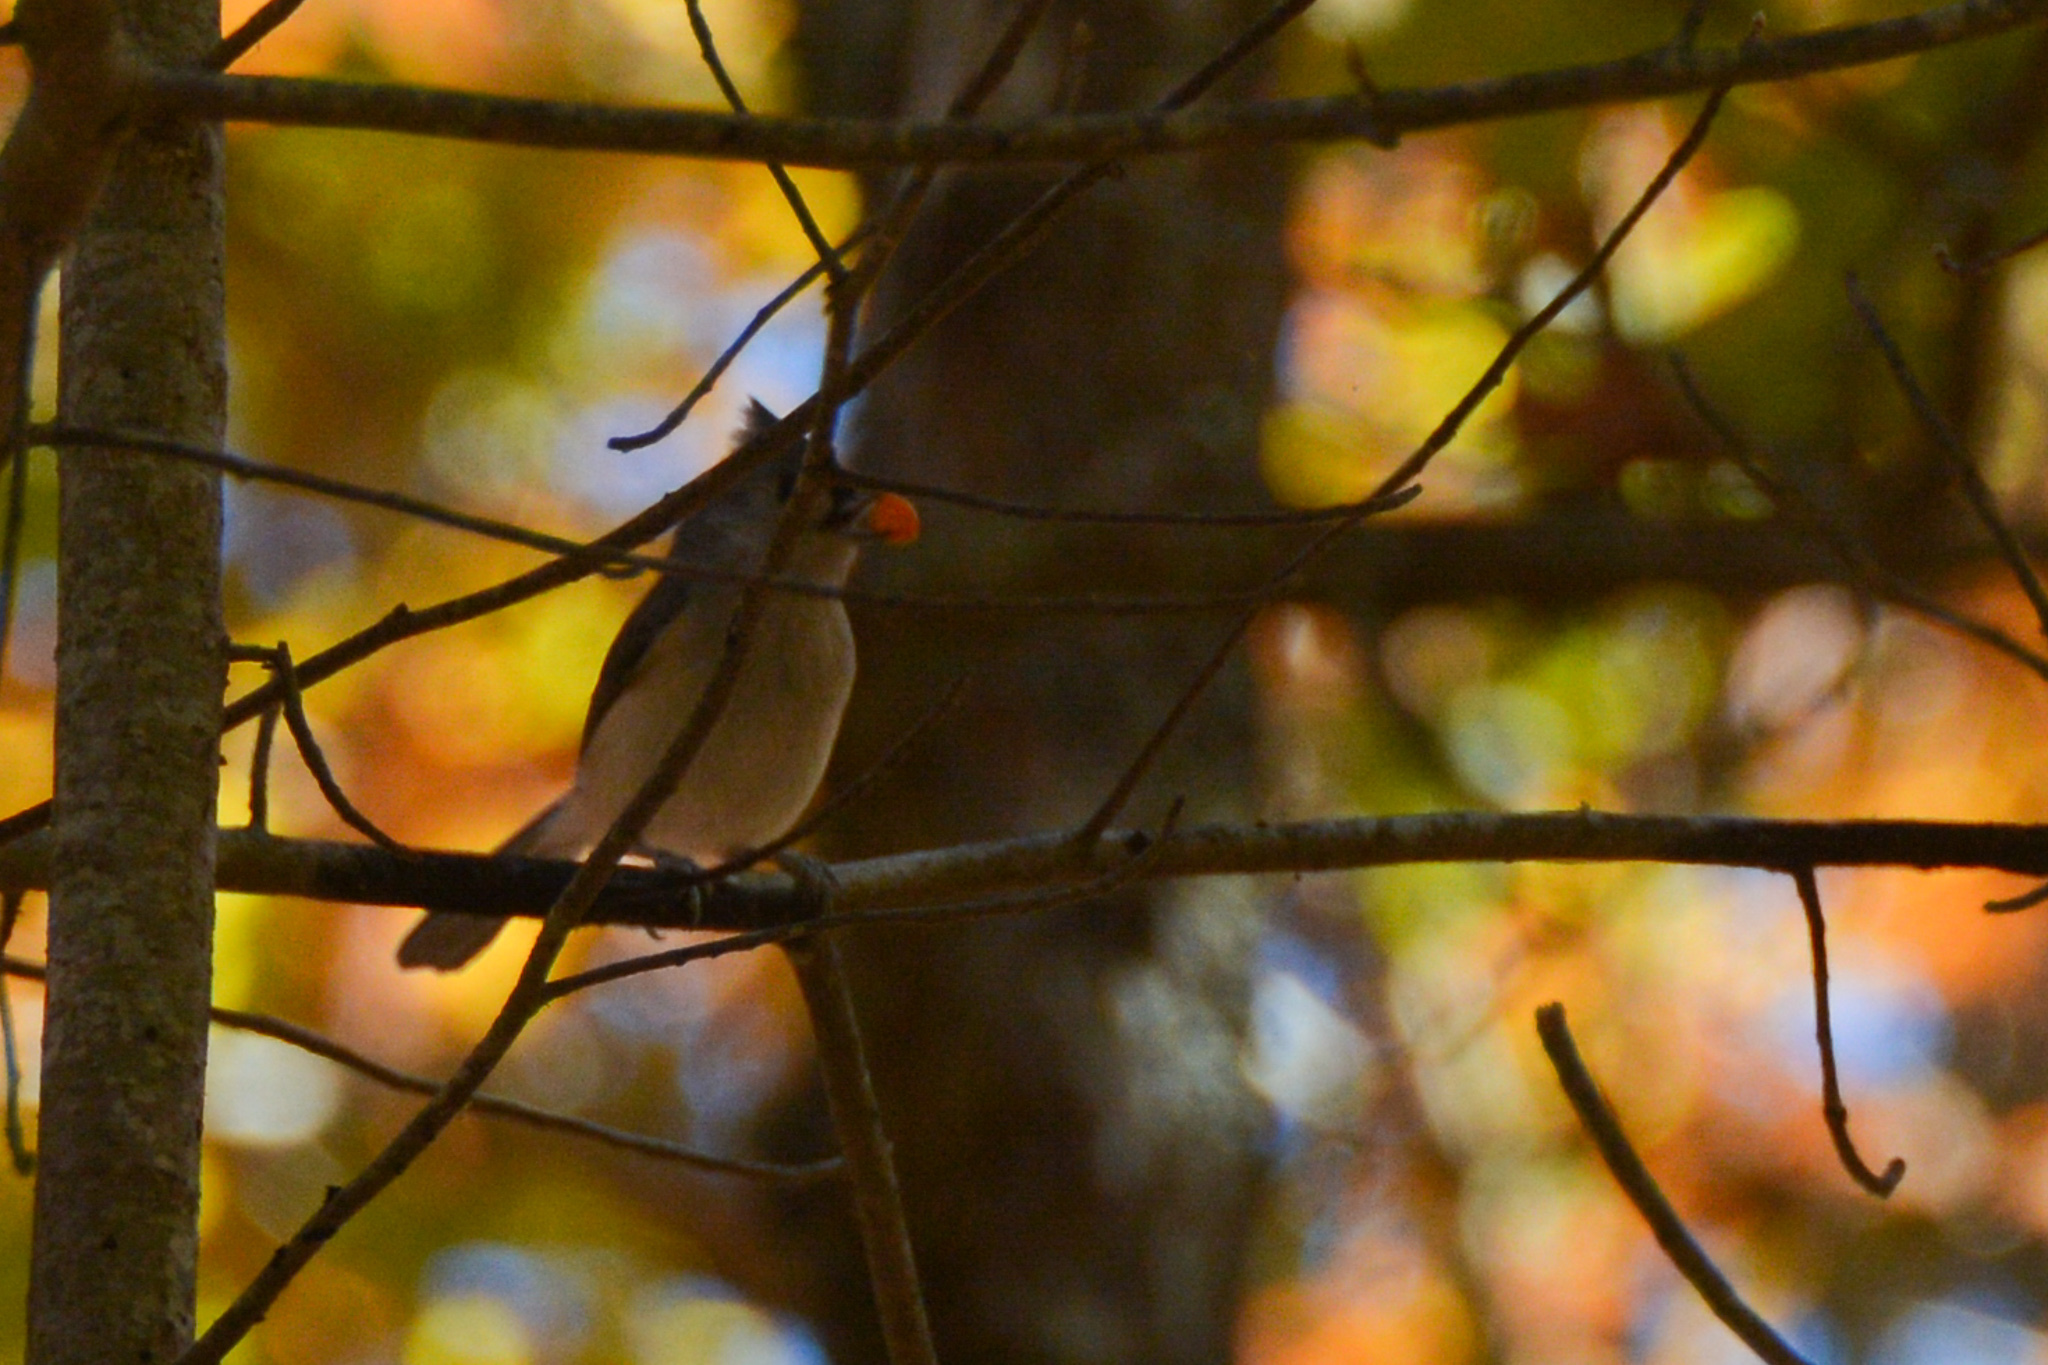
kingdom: Animalia
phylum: Chordata
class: Aves
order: Passeriformes
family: Paridae
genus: Baeolophus
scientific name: Baeolophus bicolor
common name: Tufted titmouse
